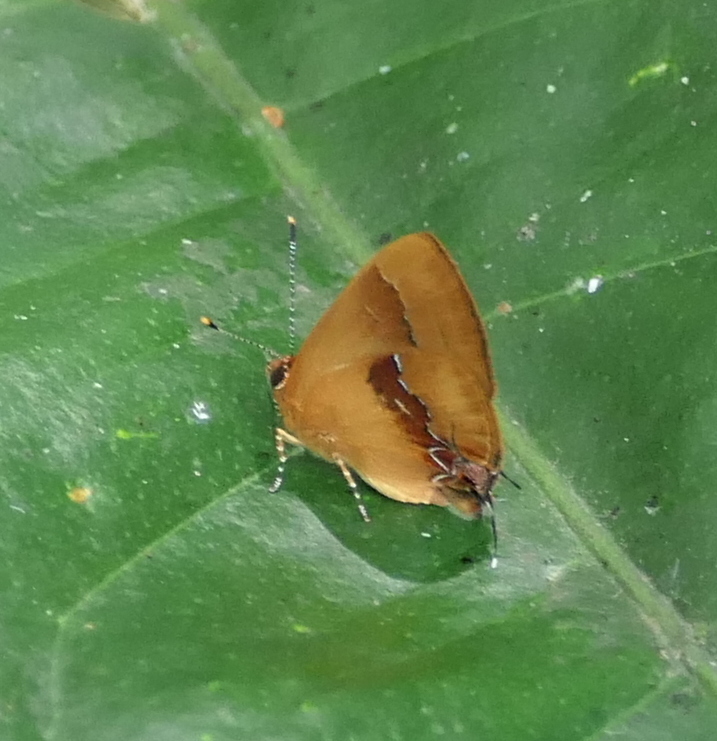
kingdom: Animalia
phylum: Arthropoda
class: Insecta
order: Lepidoptera
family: Lycaenidae
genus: Thecla
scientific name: Thecla demonassa
